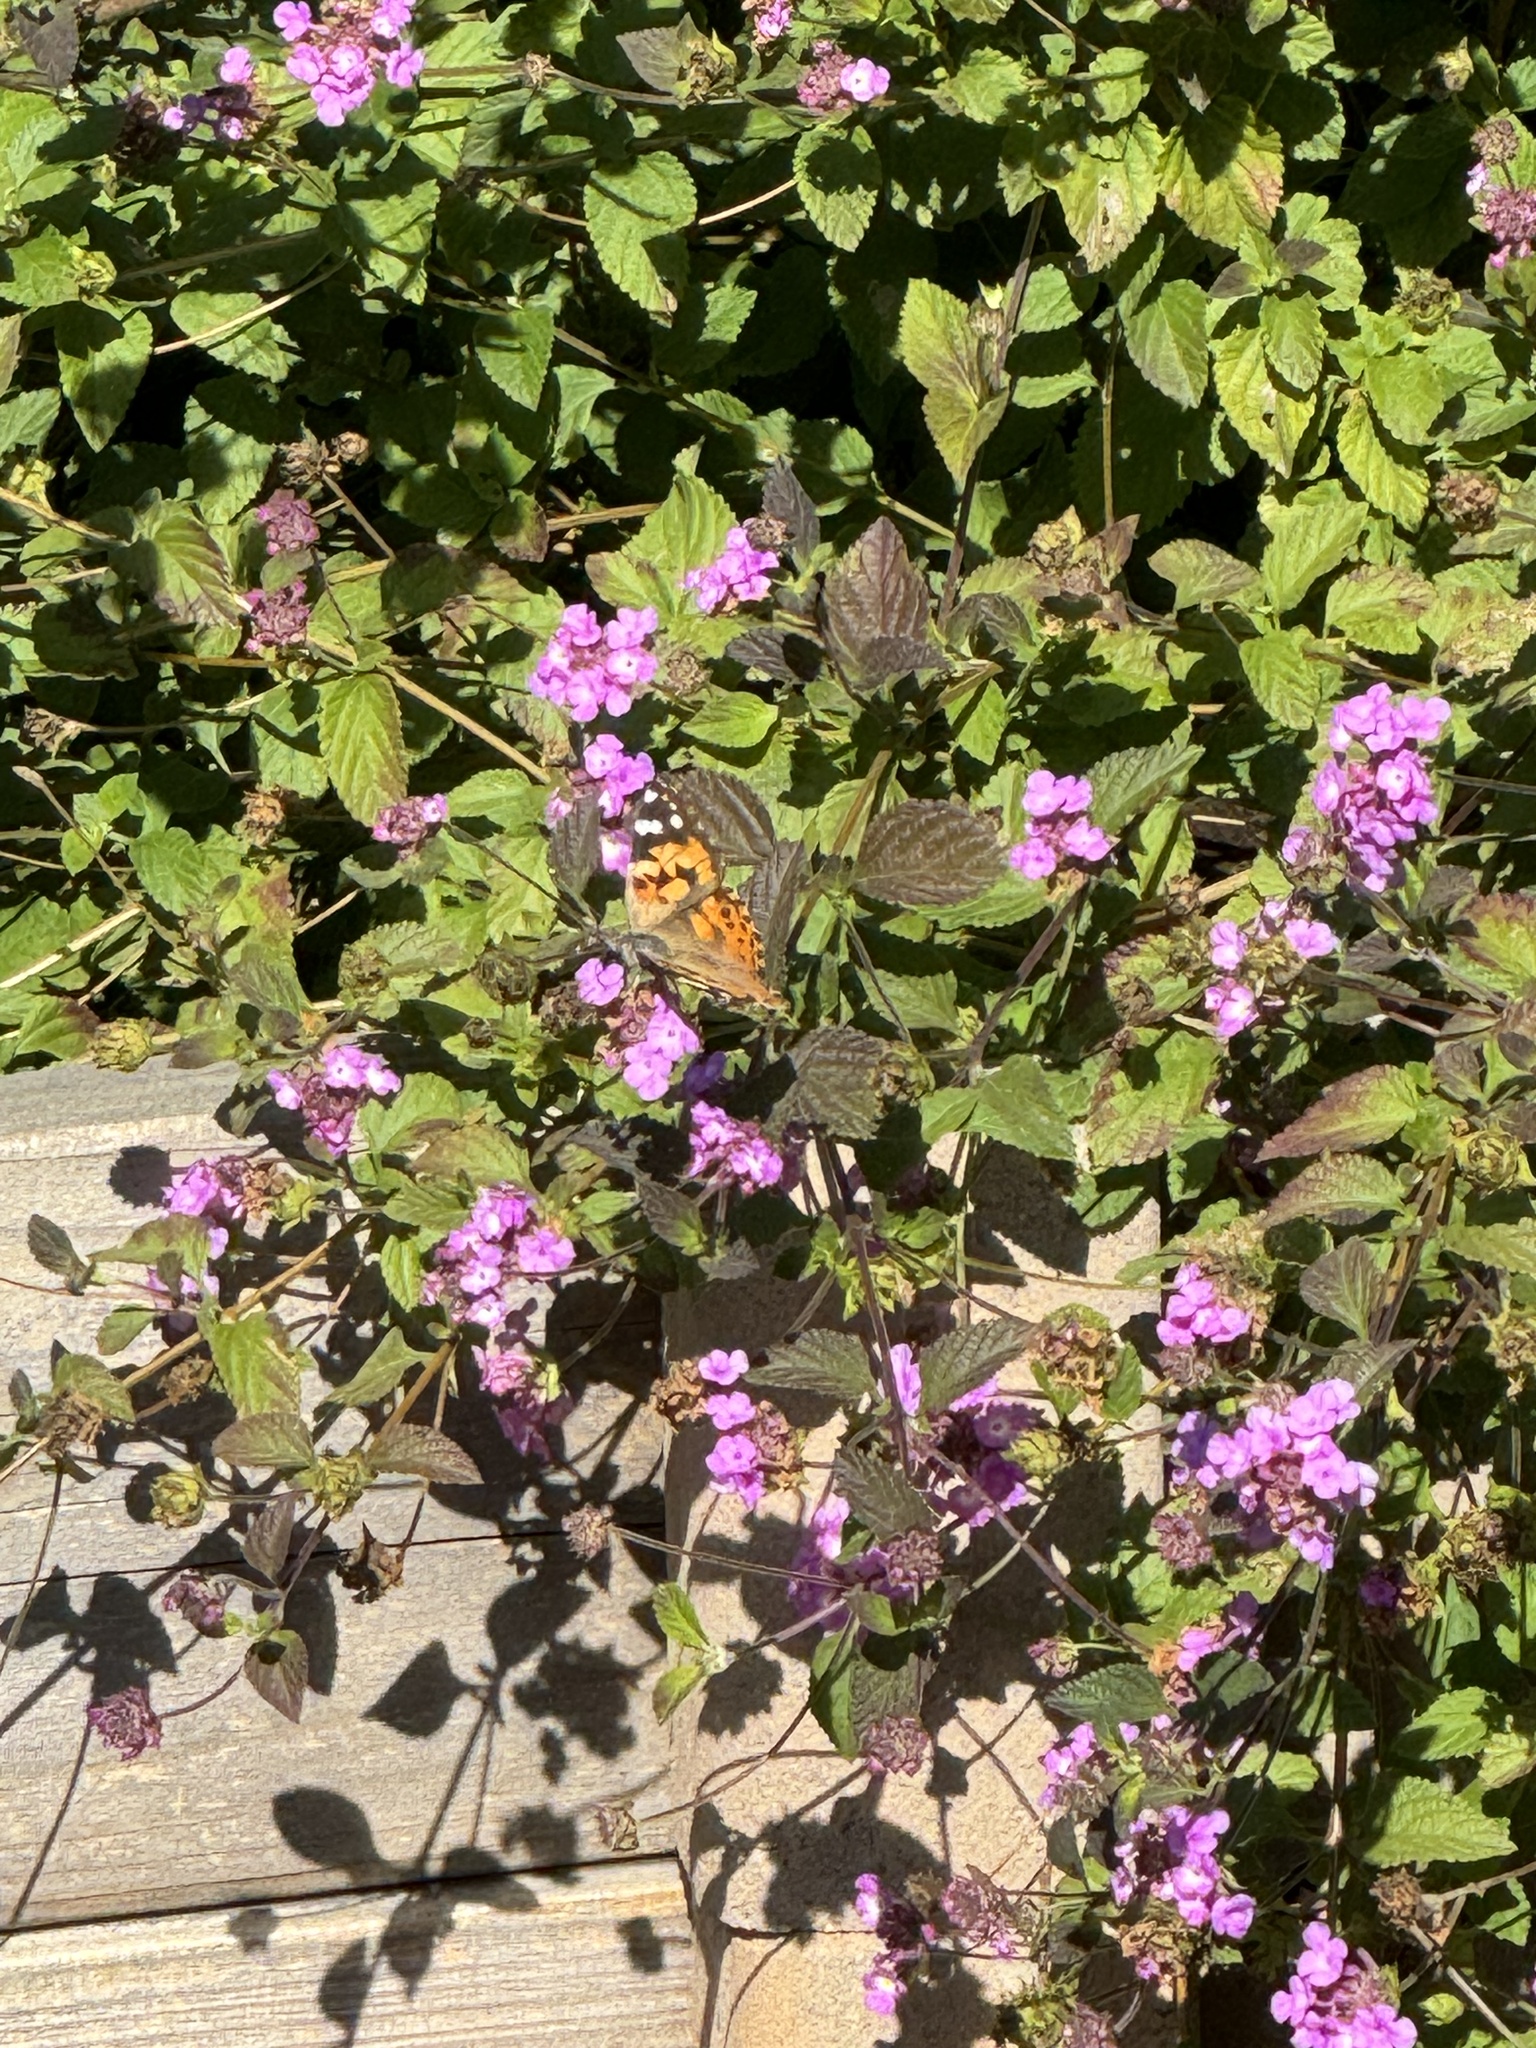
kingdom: Animalia
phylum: Arthropoda
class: Insecta
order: Lepidoptera
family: Nymphalidae
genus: Vanessa
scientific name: Vanessa cardui
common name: Painted lady
